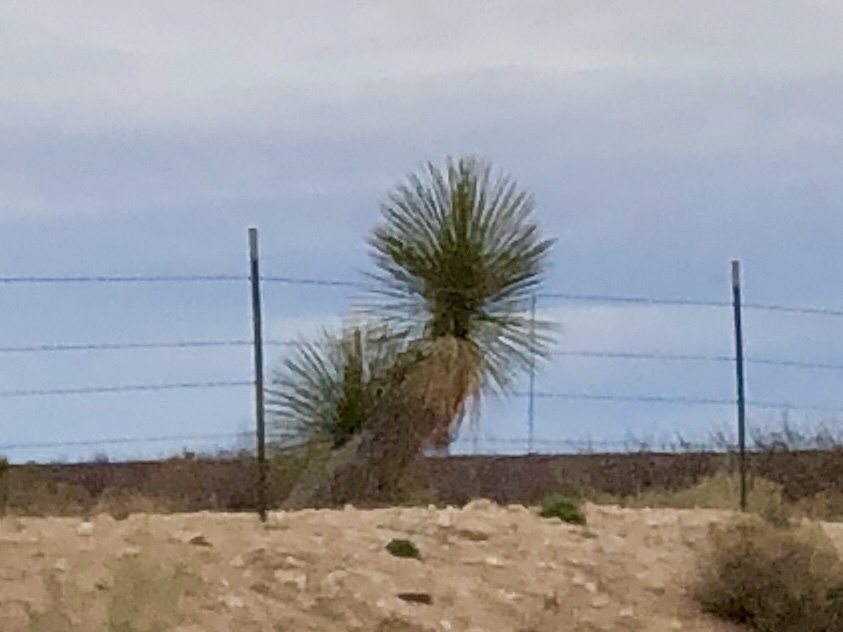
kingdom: Plantae
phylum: Tracheophyta
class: Liliopsida
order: Asparagales
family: Asparagaceae
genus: Yucca
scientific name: Yucca elata
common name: Palmella
